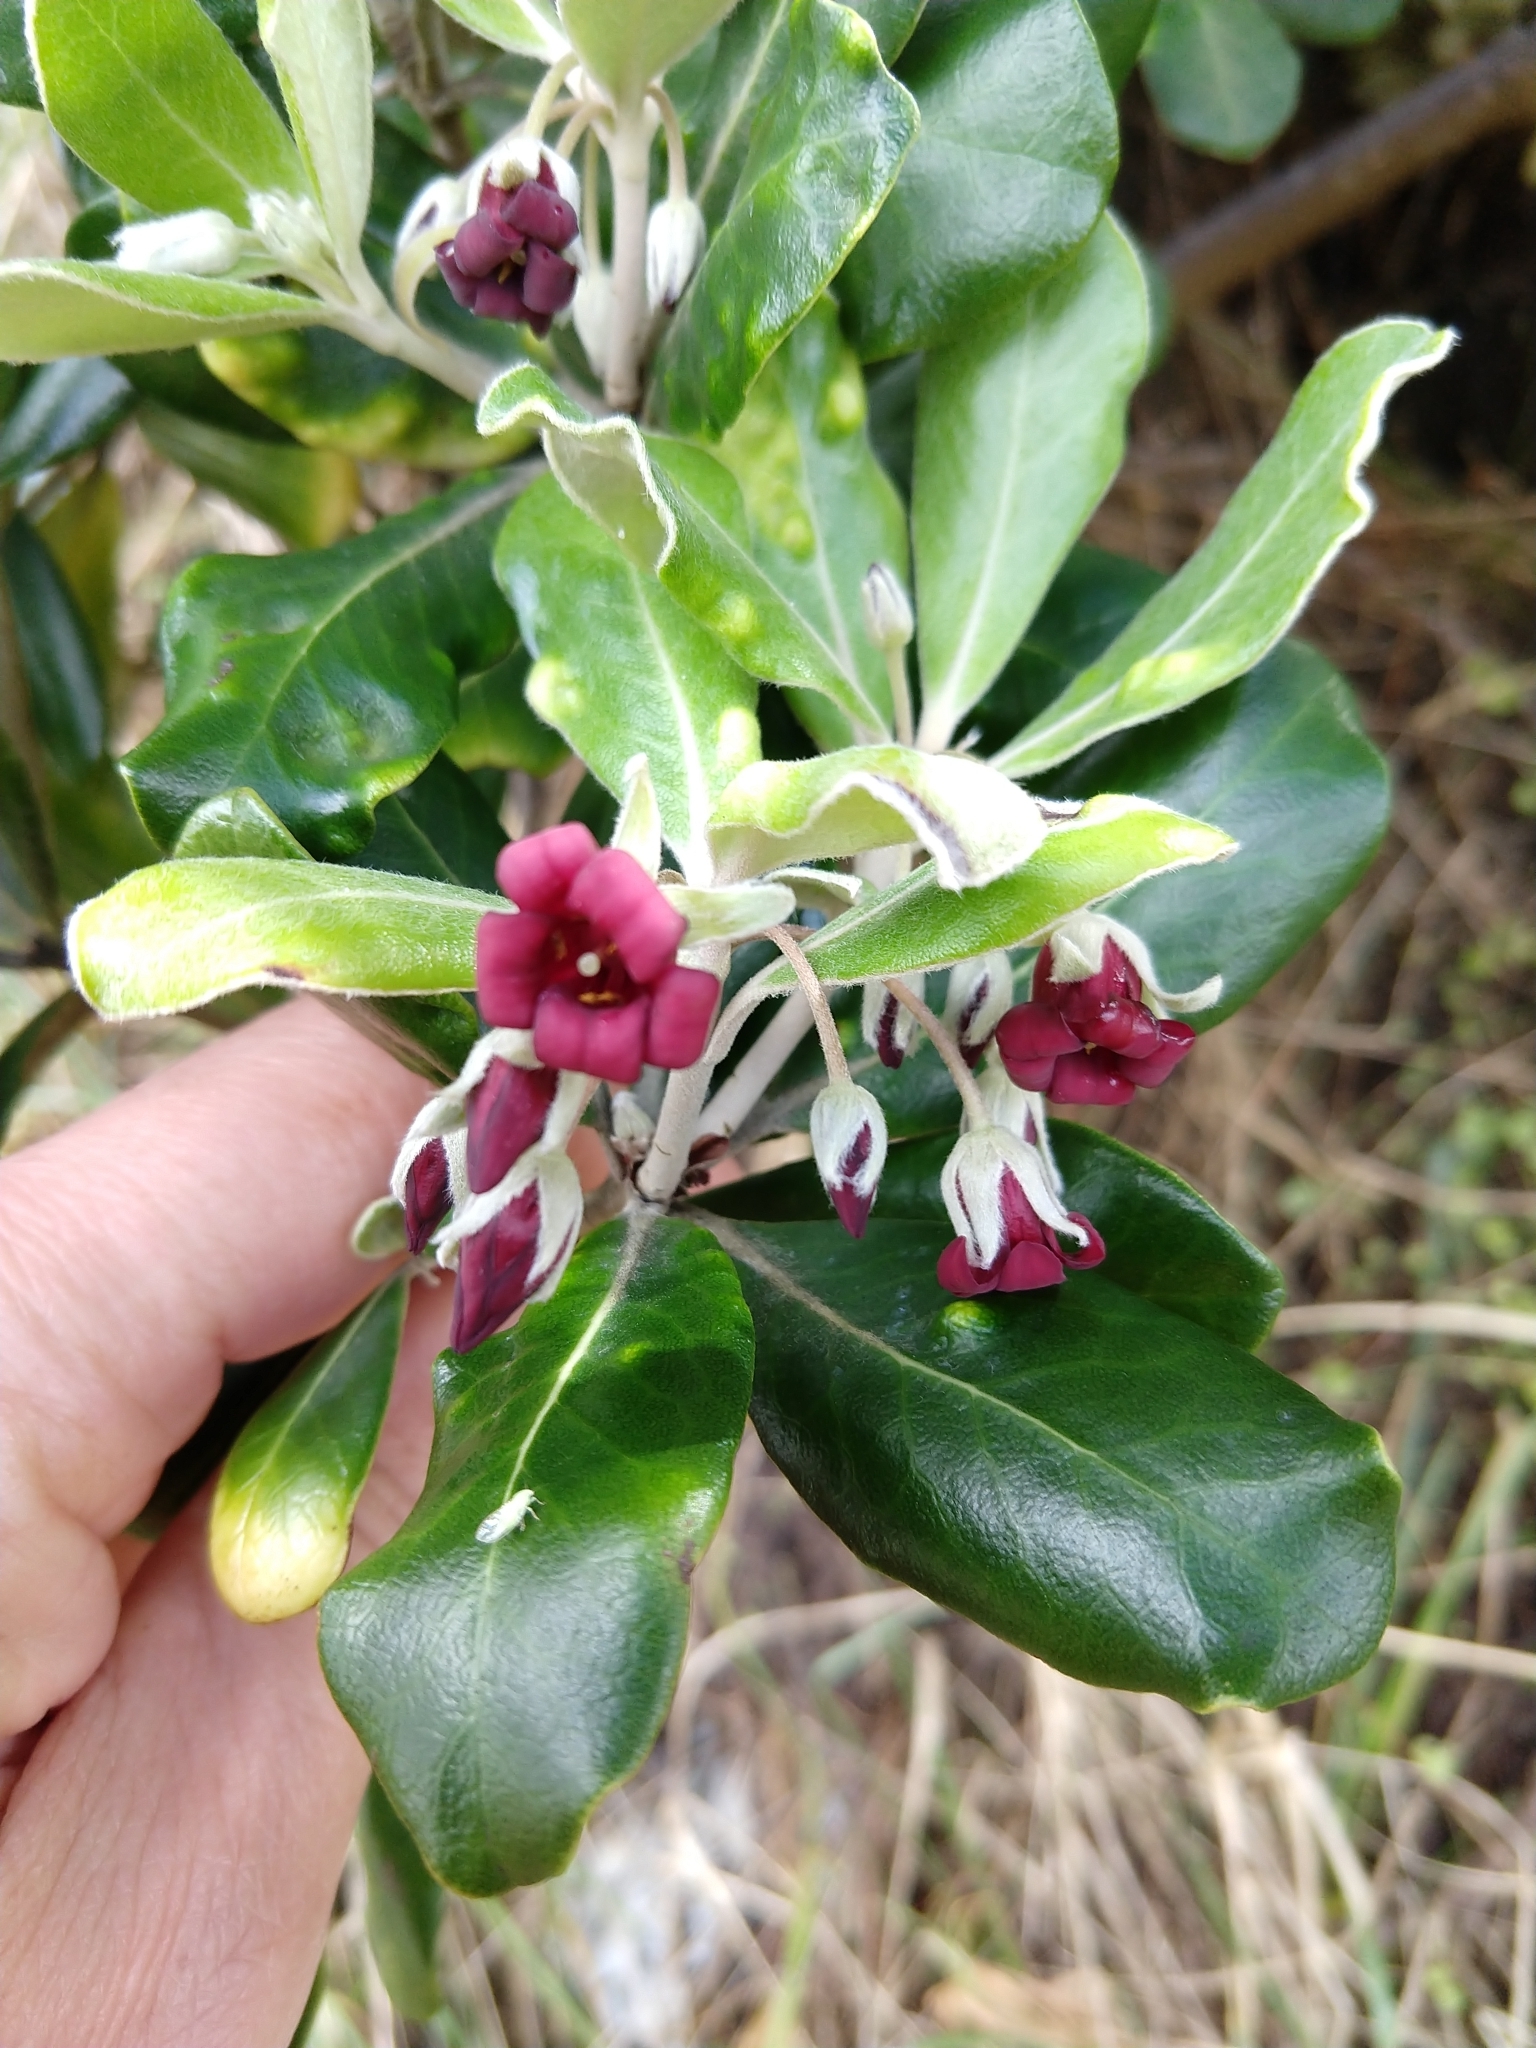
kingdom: Plantae
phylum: Tracheophyta
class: Magnoliopsida
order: Apiales
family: Pittosporaceae
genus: Pittosporum
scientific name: Pittosporum crassifolium
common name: Karo
